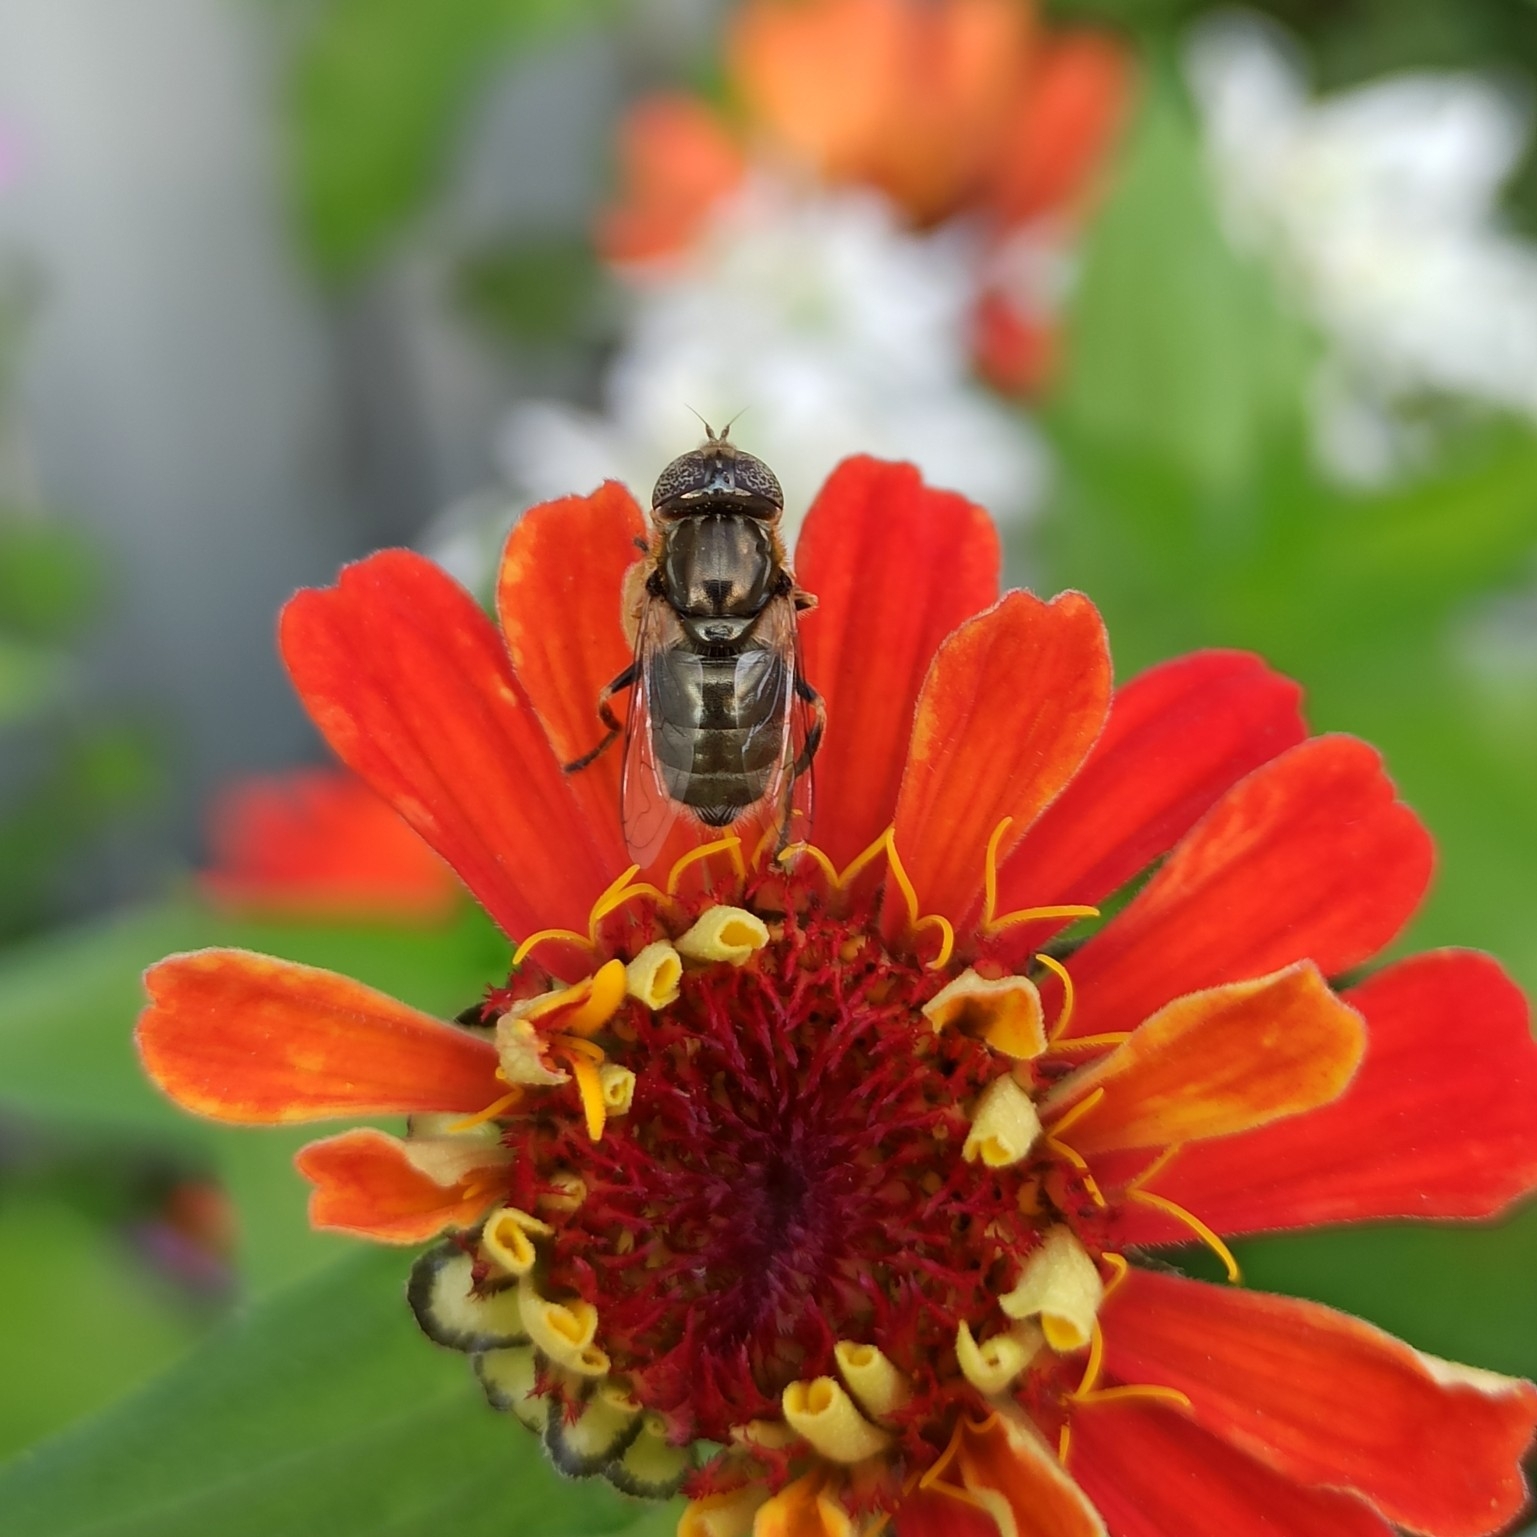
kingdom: Animalia
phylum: Arthropoda
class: Insecta
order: Diptera
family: Syrphidae
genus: Eristalinus
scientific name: Eristalinus aeneus
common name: Syrphid fly
